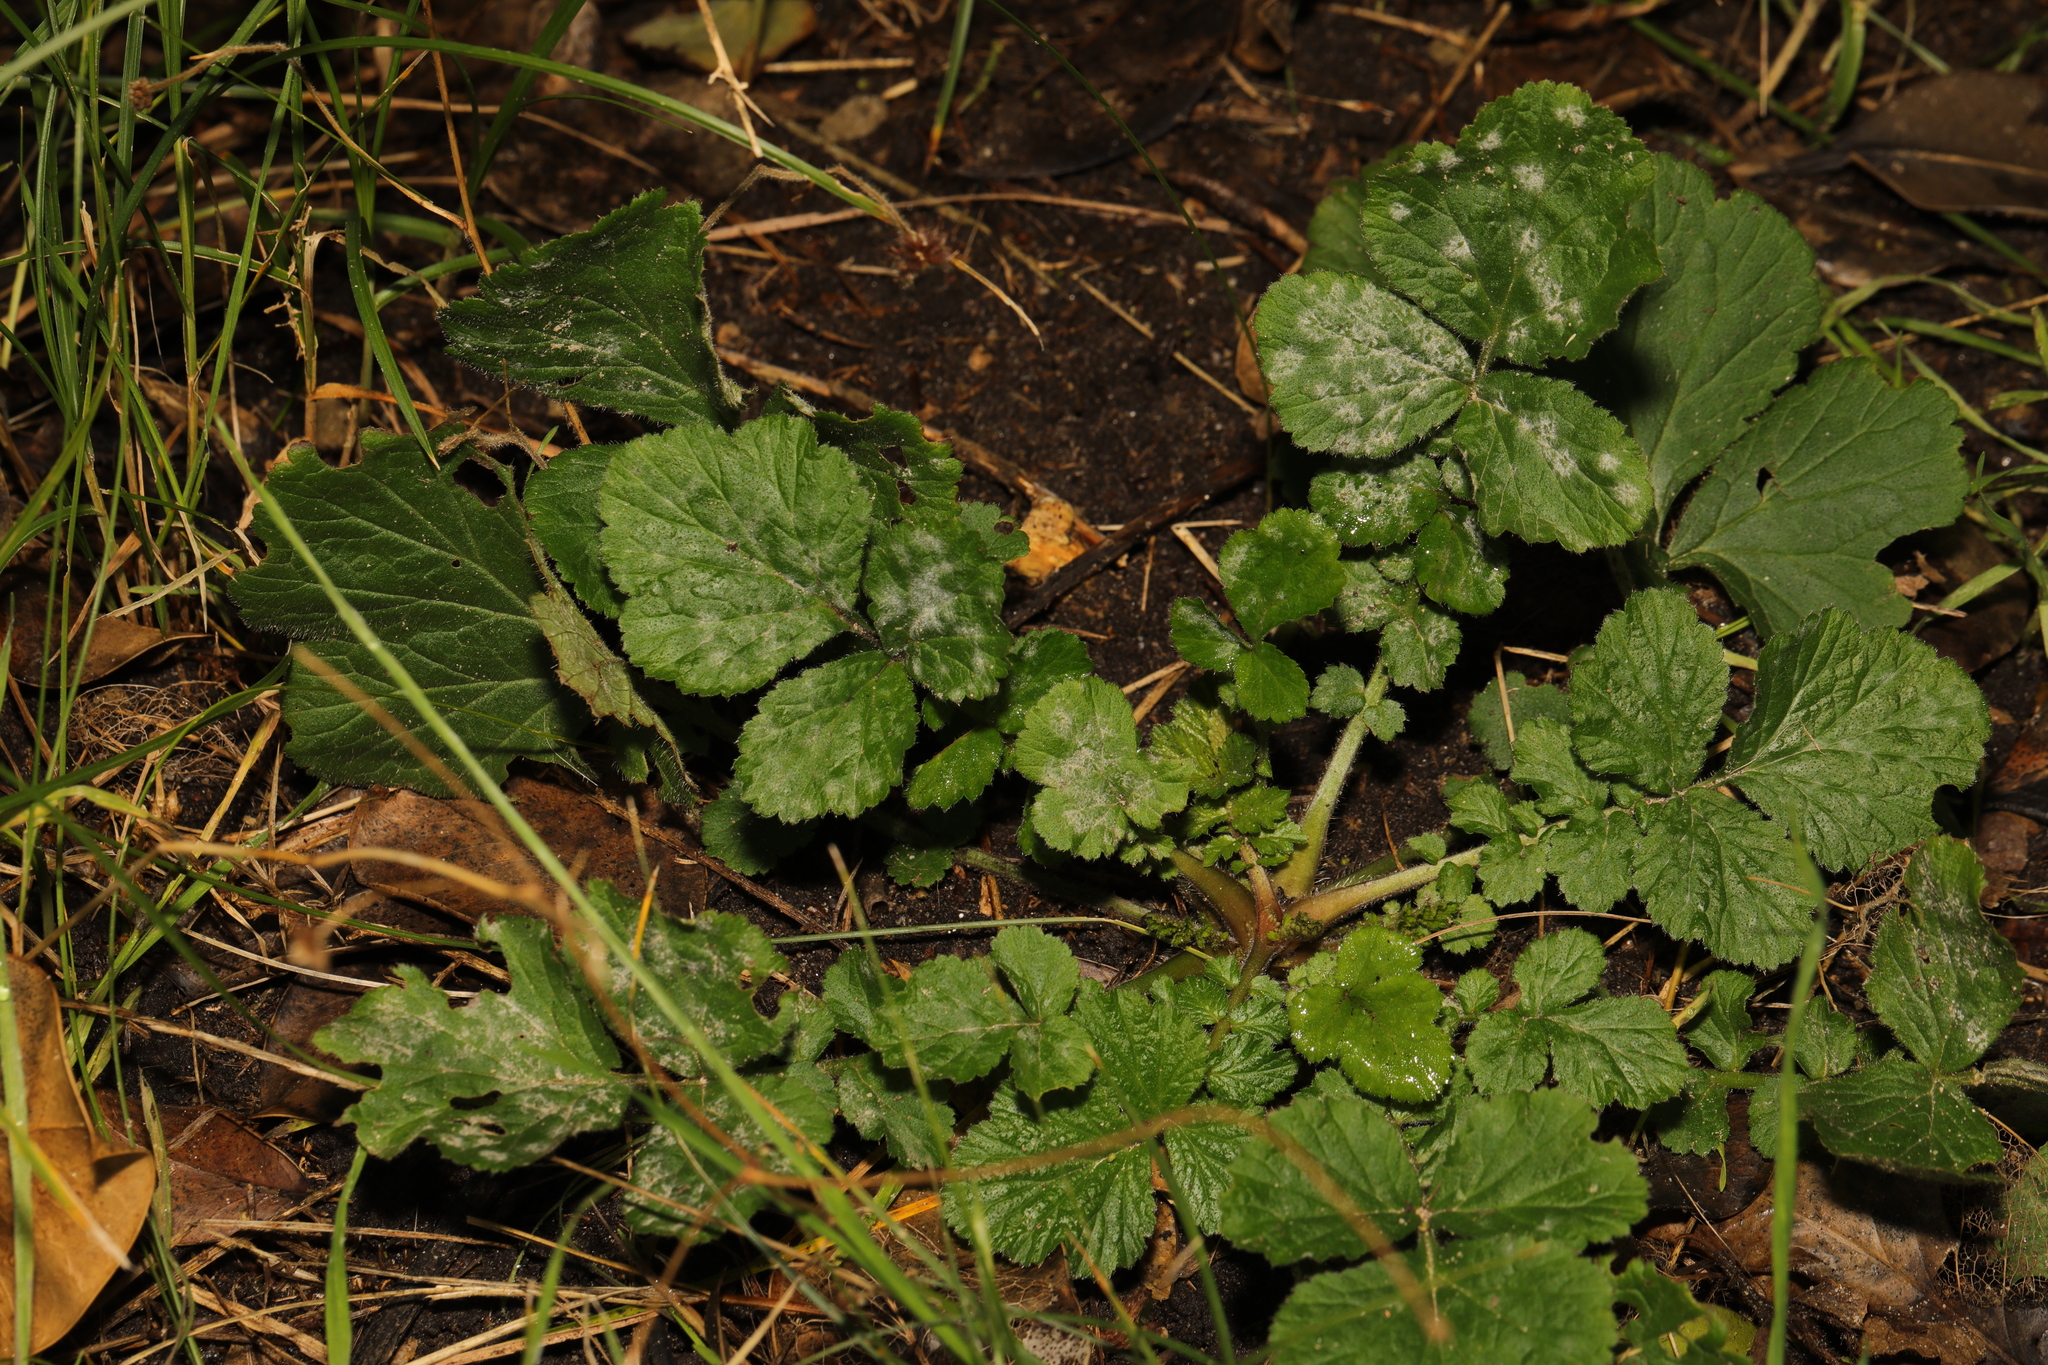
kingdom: Plantae
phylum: Tracheophyta
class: Magnoliopsida
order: Rosales
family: Rosaceae
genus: Geum
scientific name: Geum urbanum
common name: Wood avens
